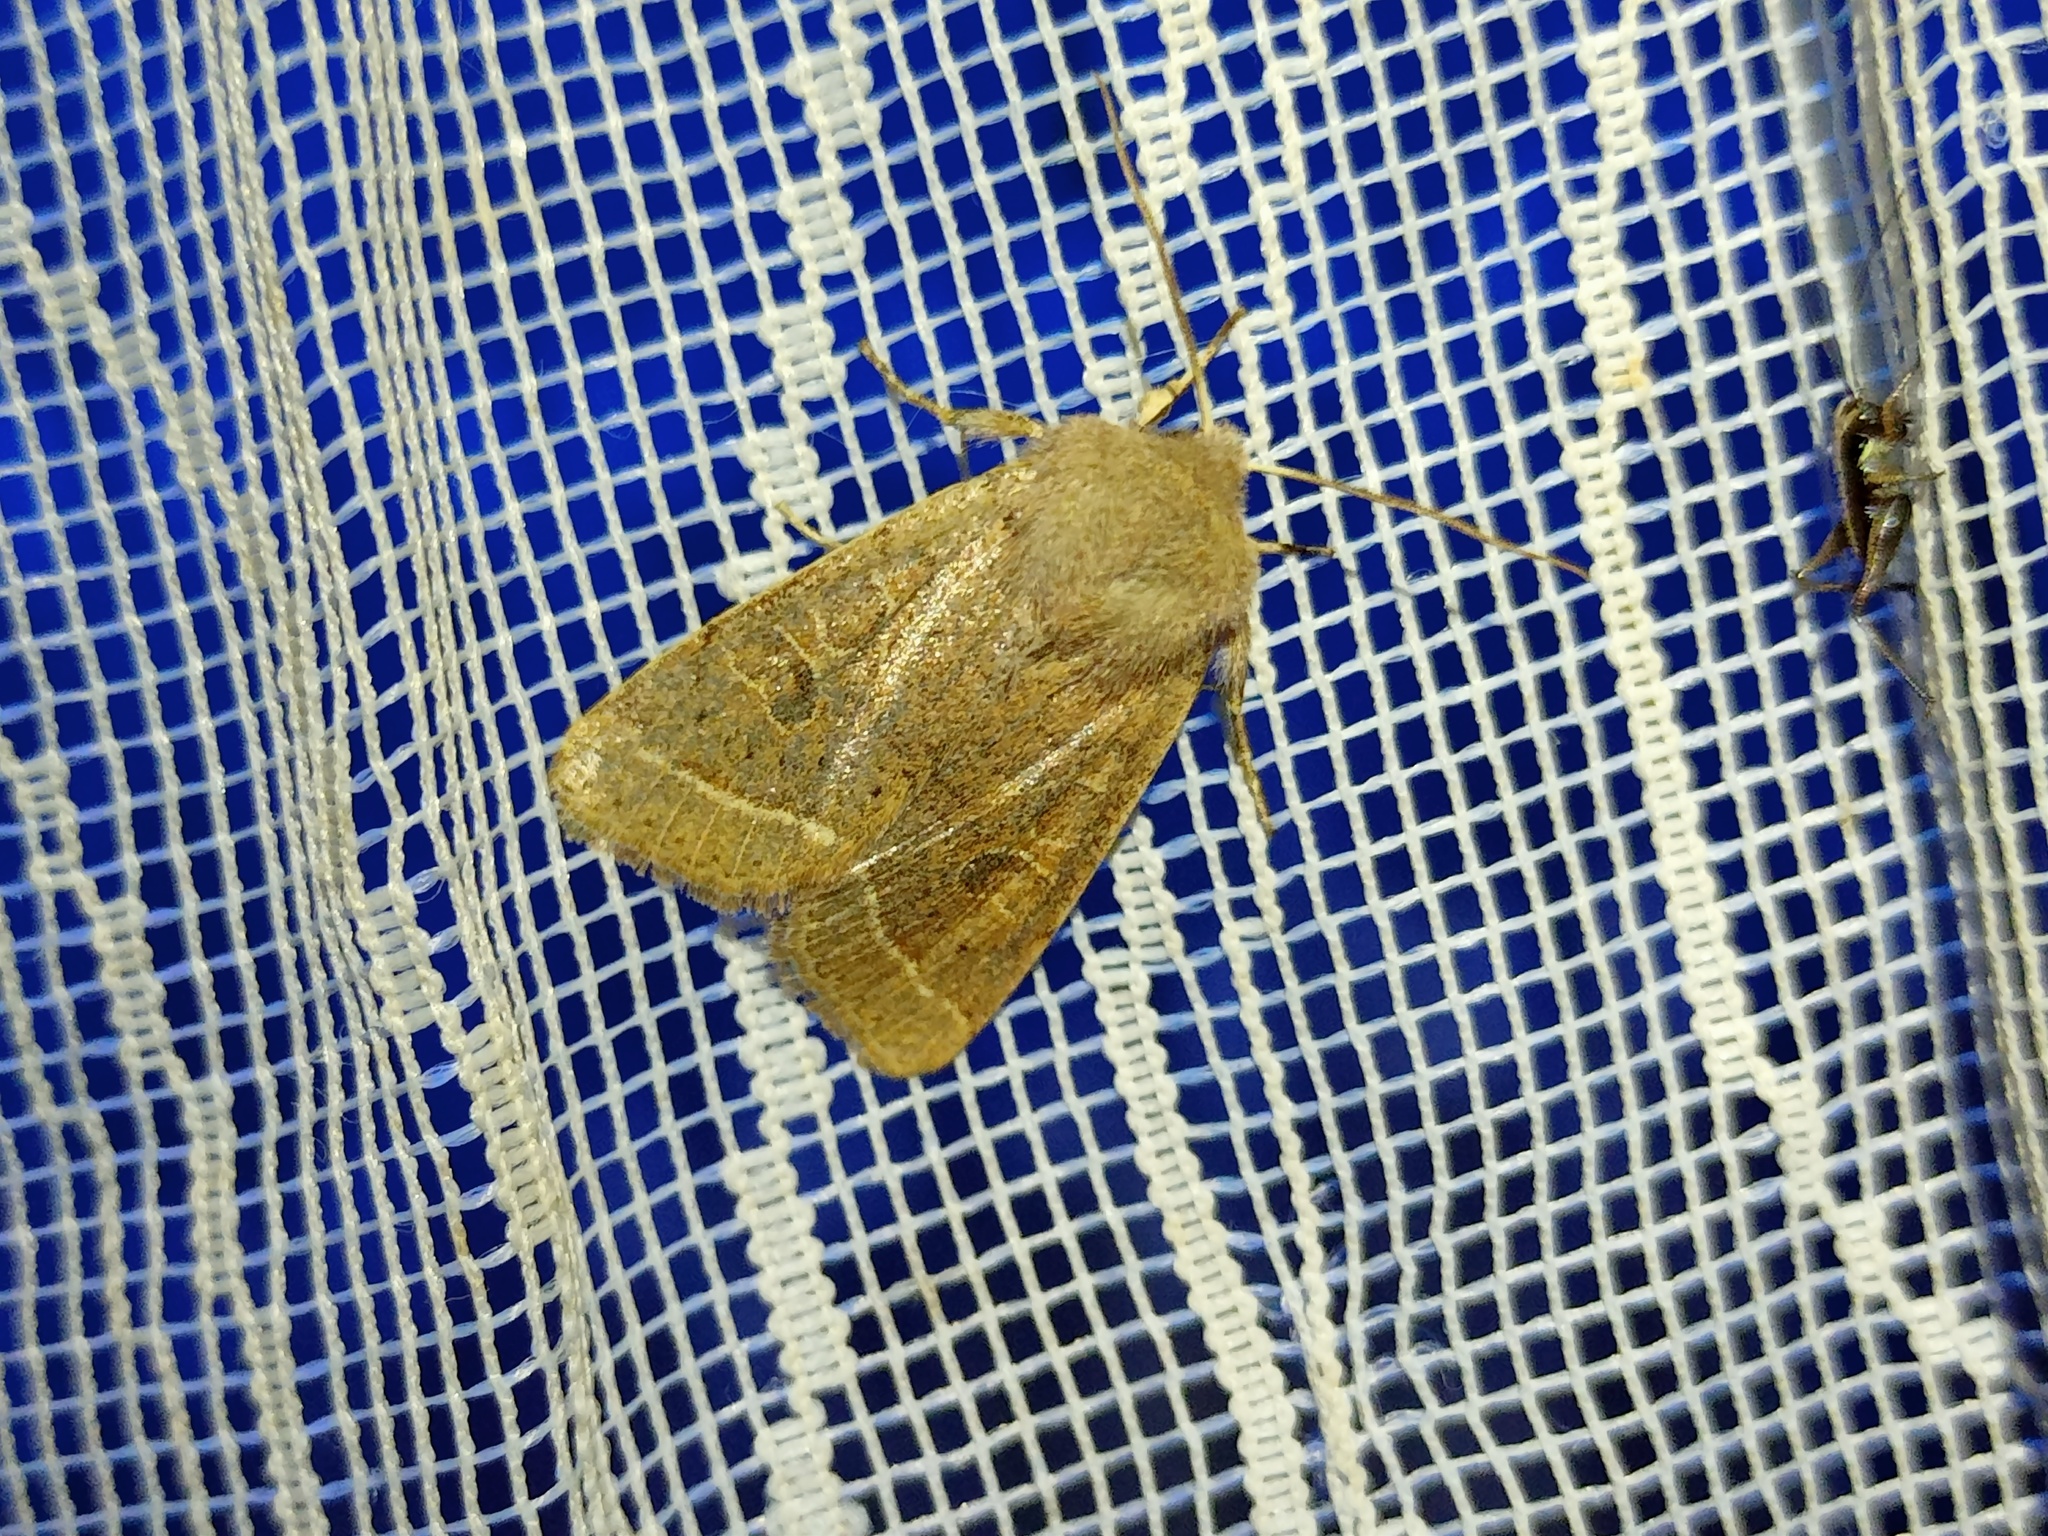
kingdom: Animalia
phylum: Arthropoda
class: Insecta
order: Lepidoptera
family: Noctuidae
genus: Orthosia
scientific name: Orthosia cerasi
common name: Common quaker
